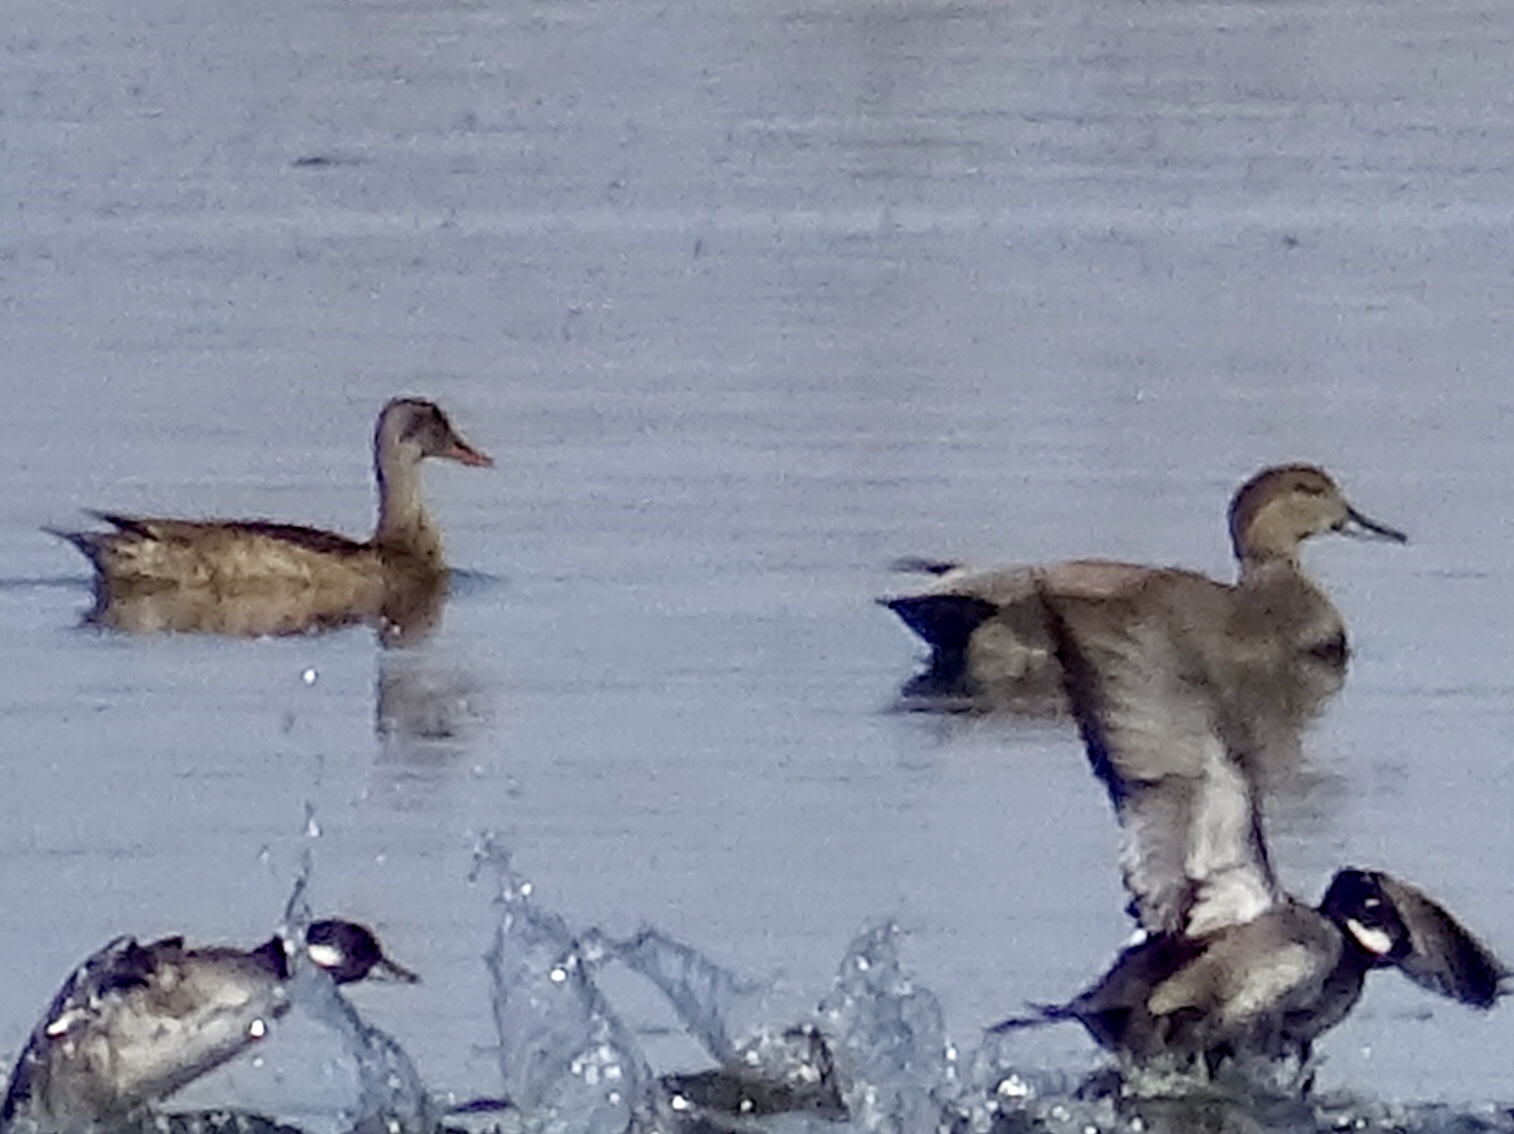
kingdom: Animalia
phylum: Chordata
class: Aves
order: Anseriformes
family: Anatidae
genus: Mareca
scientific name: Mareca strepera
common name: Gadwall
